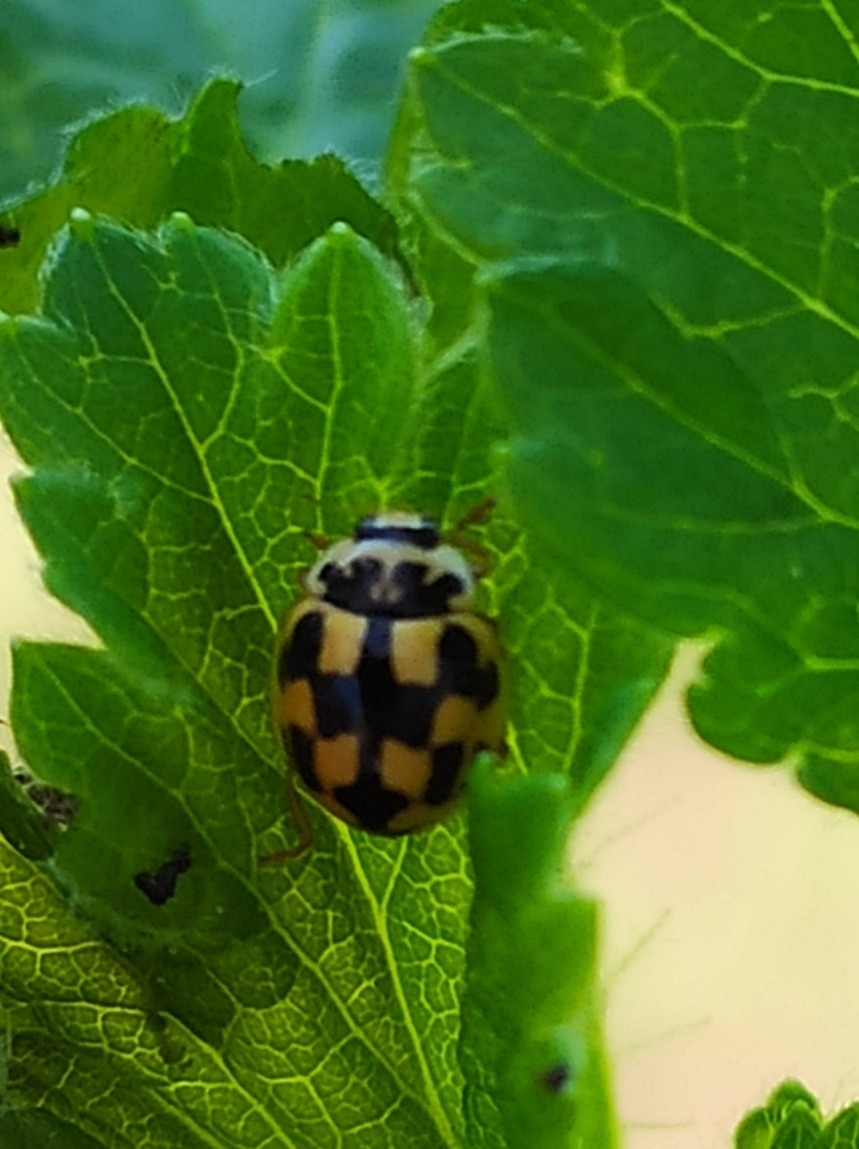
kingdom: Animalia
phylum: Arthropoda
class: Insecta
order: Coleoptera
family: Coccinellidae
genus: Propylaea
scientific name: Propylaea quatuordecimpunctata
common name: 14-spotted ladybird beetle
